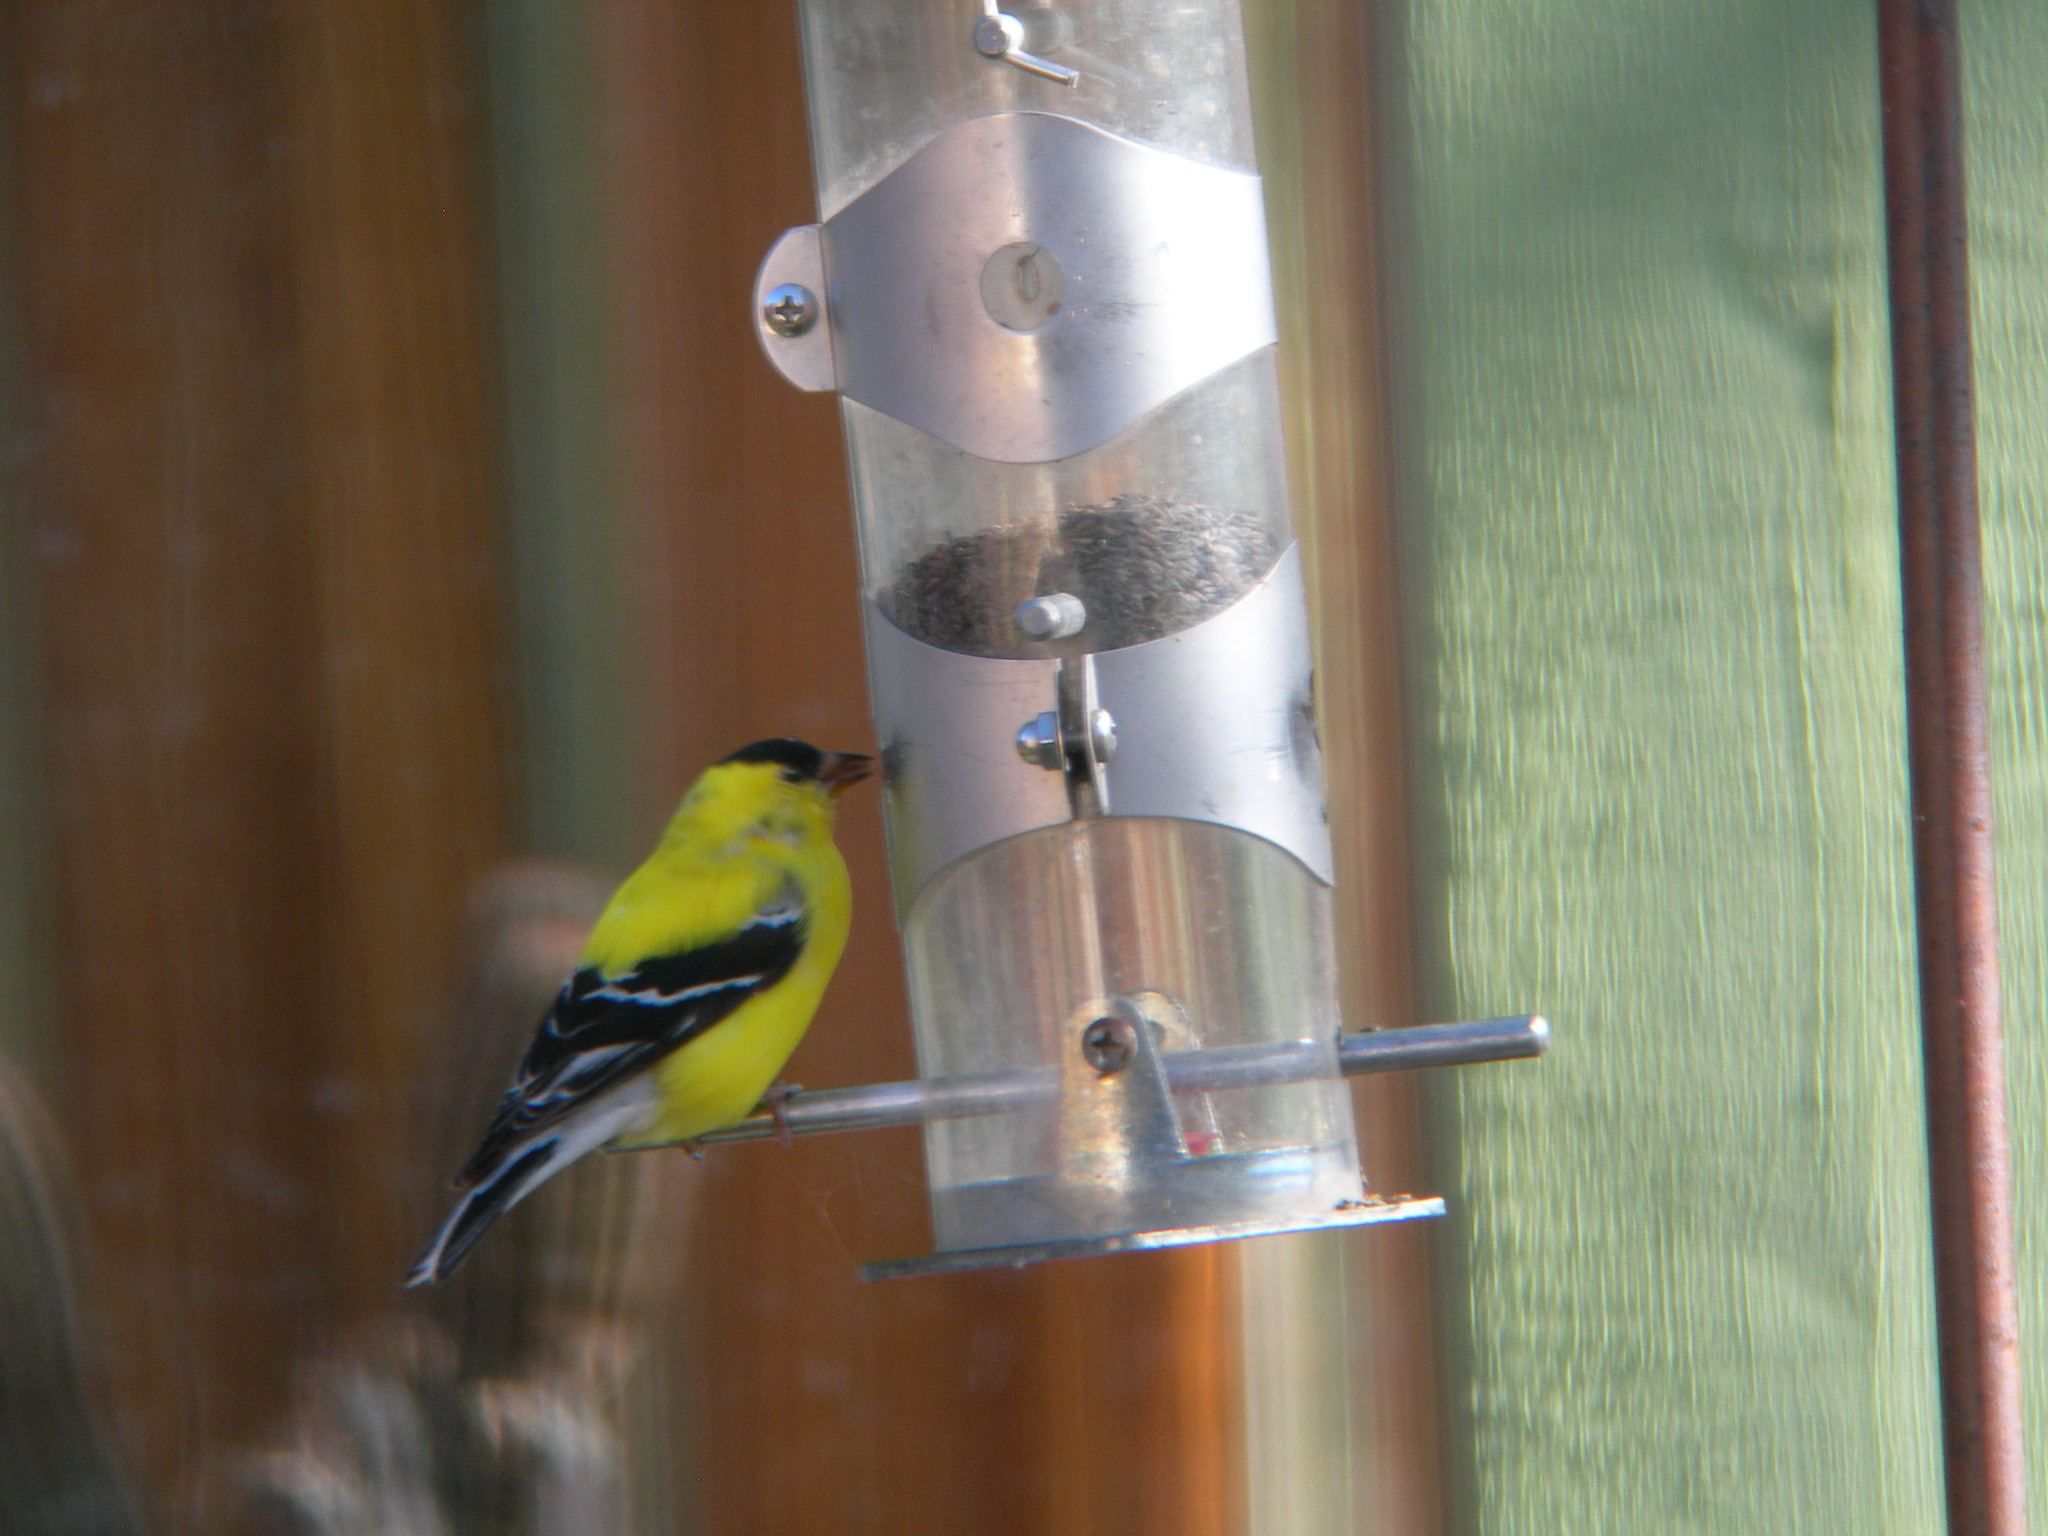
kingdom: Animalia
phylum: Chordata
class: Aves
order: Passeriformes
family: Fringillidae
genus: Spinus
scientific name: Spinus tristis
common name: American goldfinch
